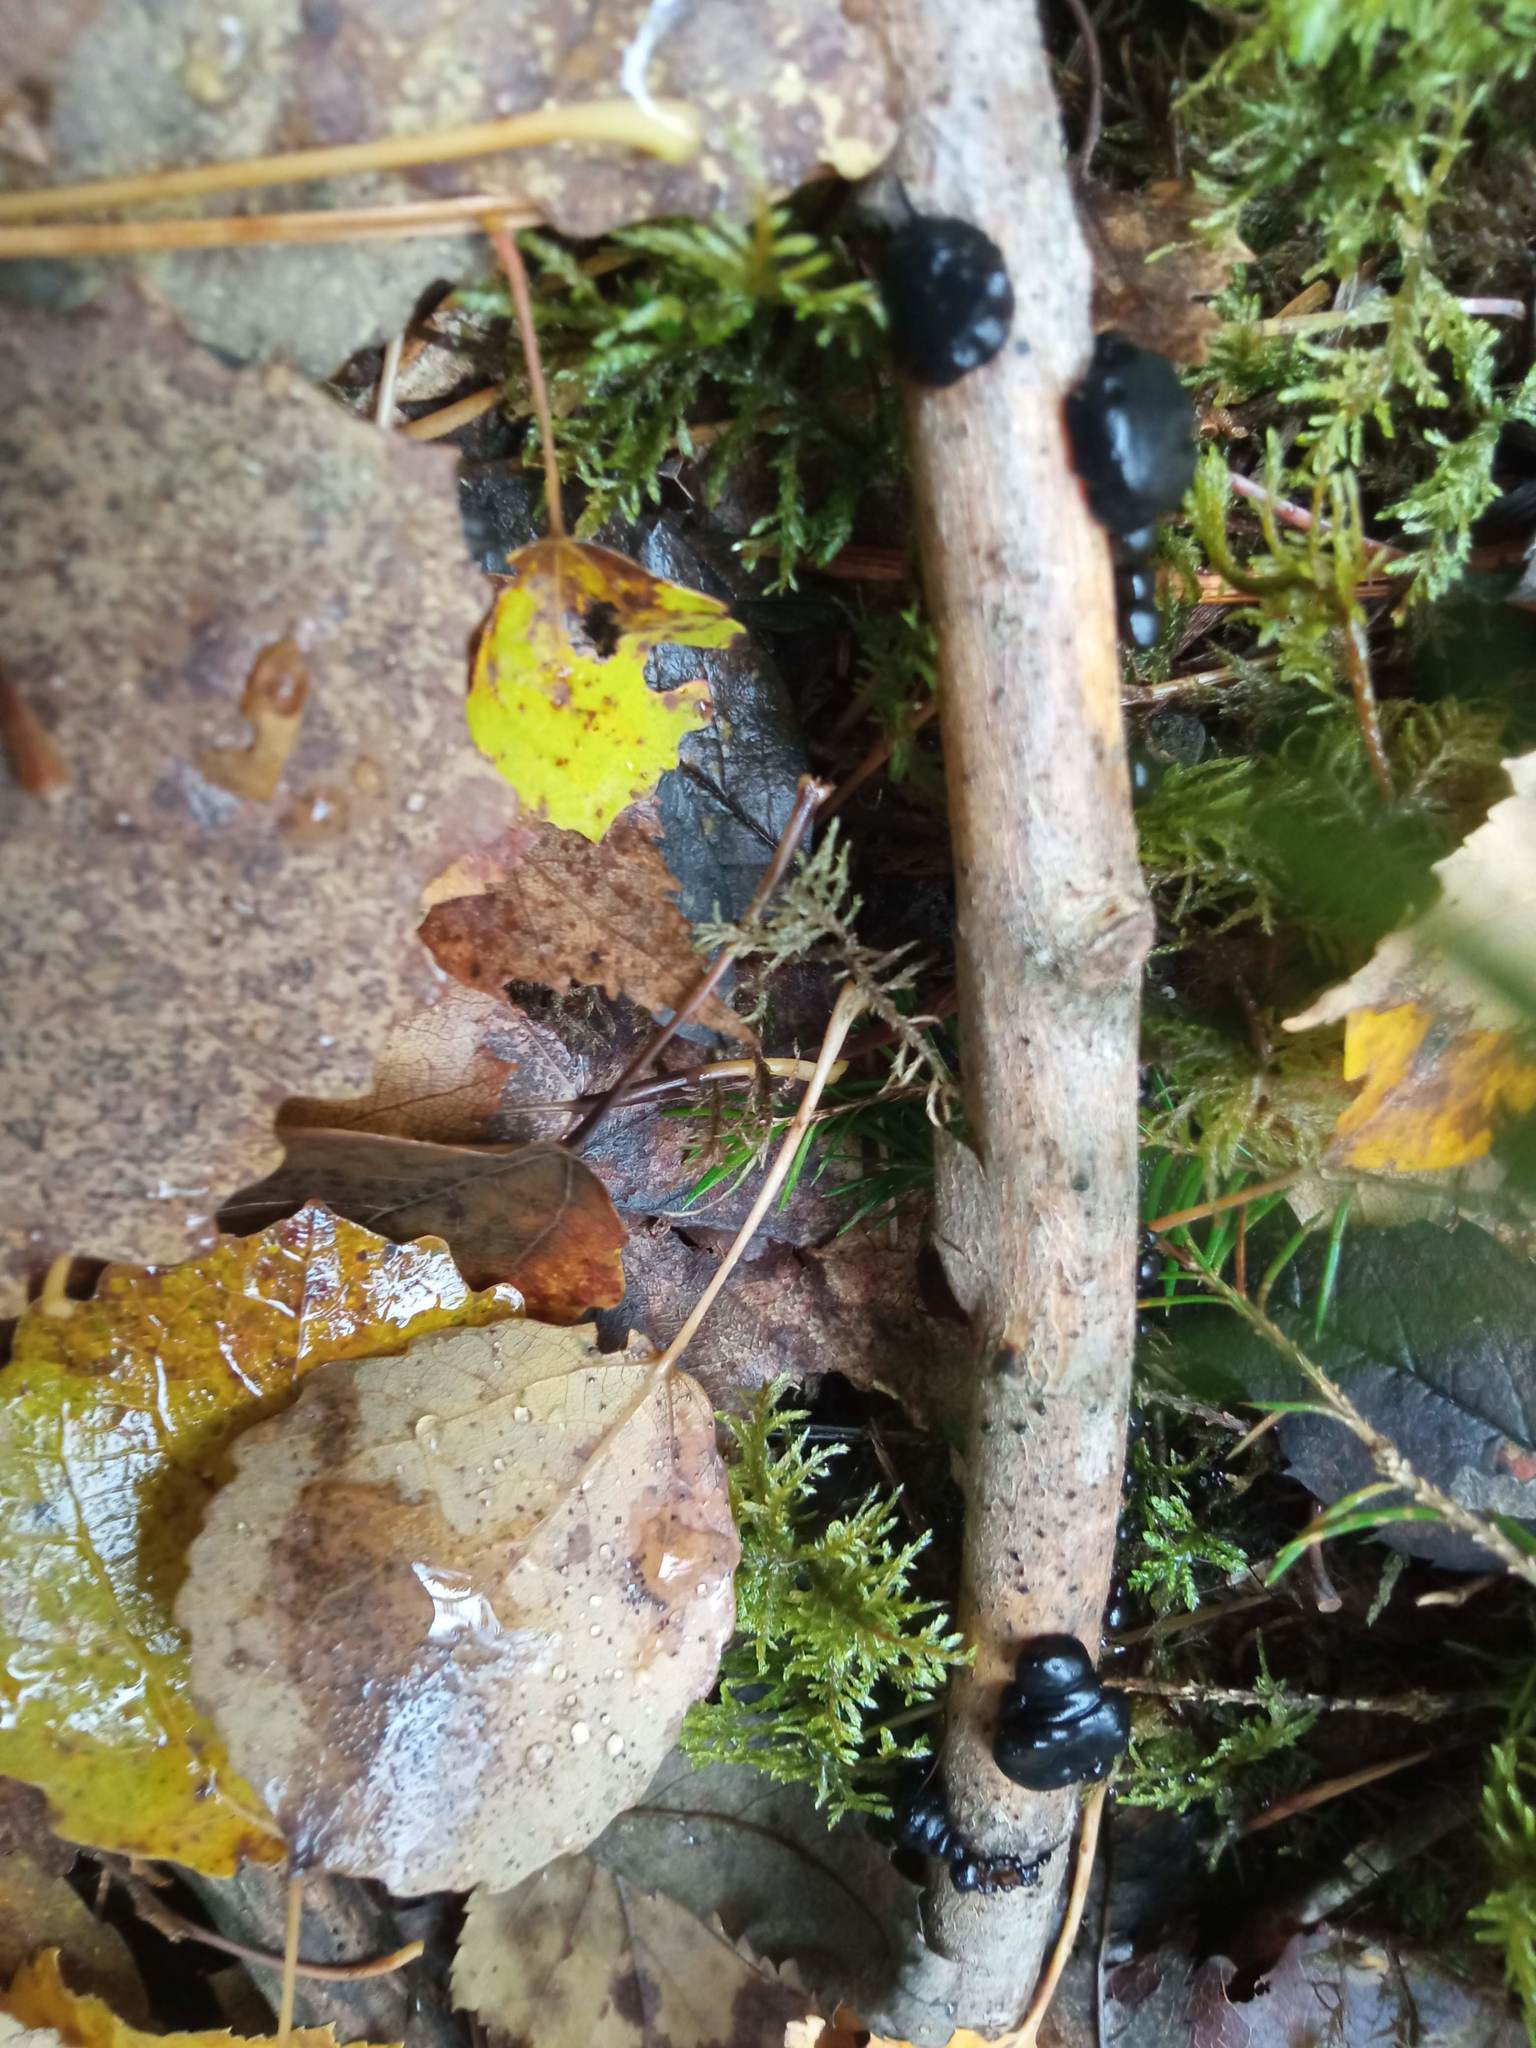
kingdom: Fungi
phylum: Basidiomycota
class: Agaricomycetes
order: Auriculariales
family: Auriculariaceae
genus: Exidia
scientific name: Exidia glandulosa
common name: Witches' butter
